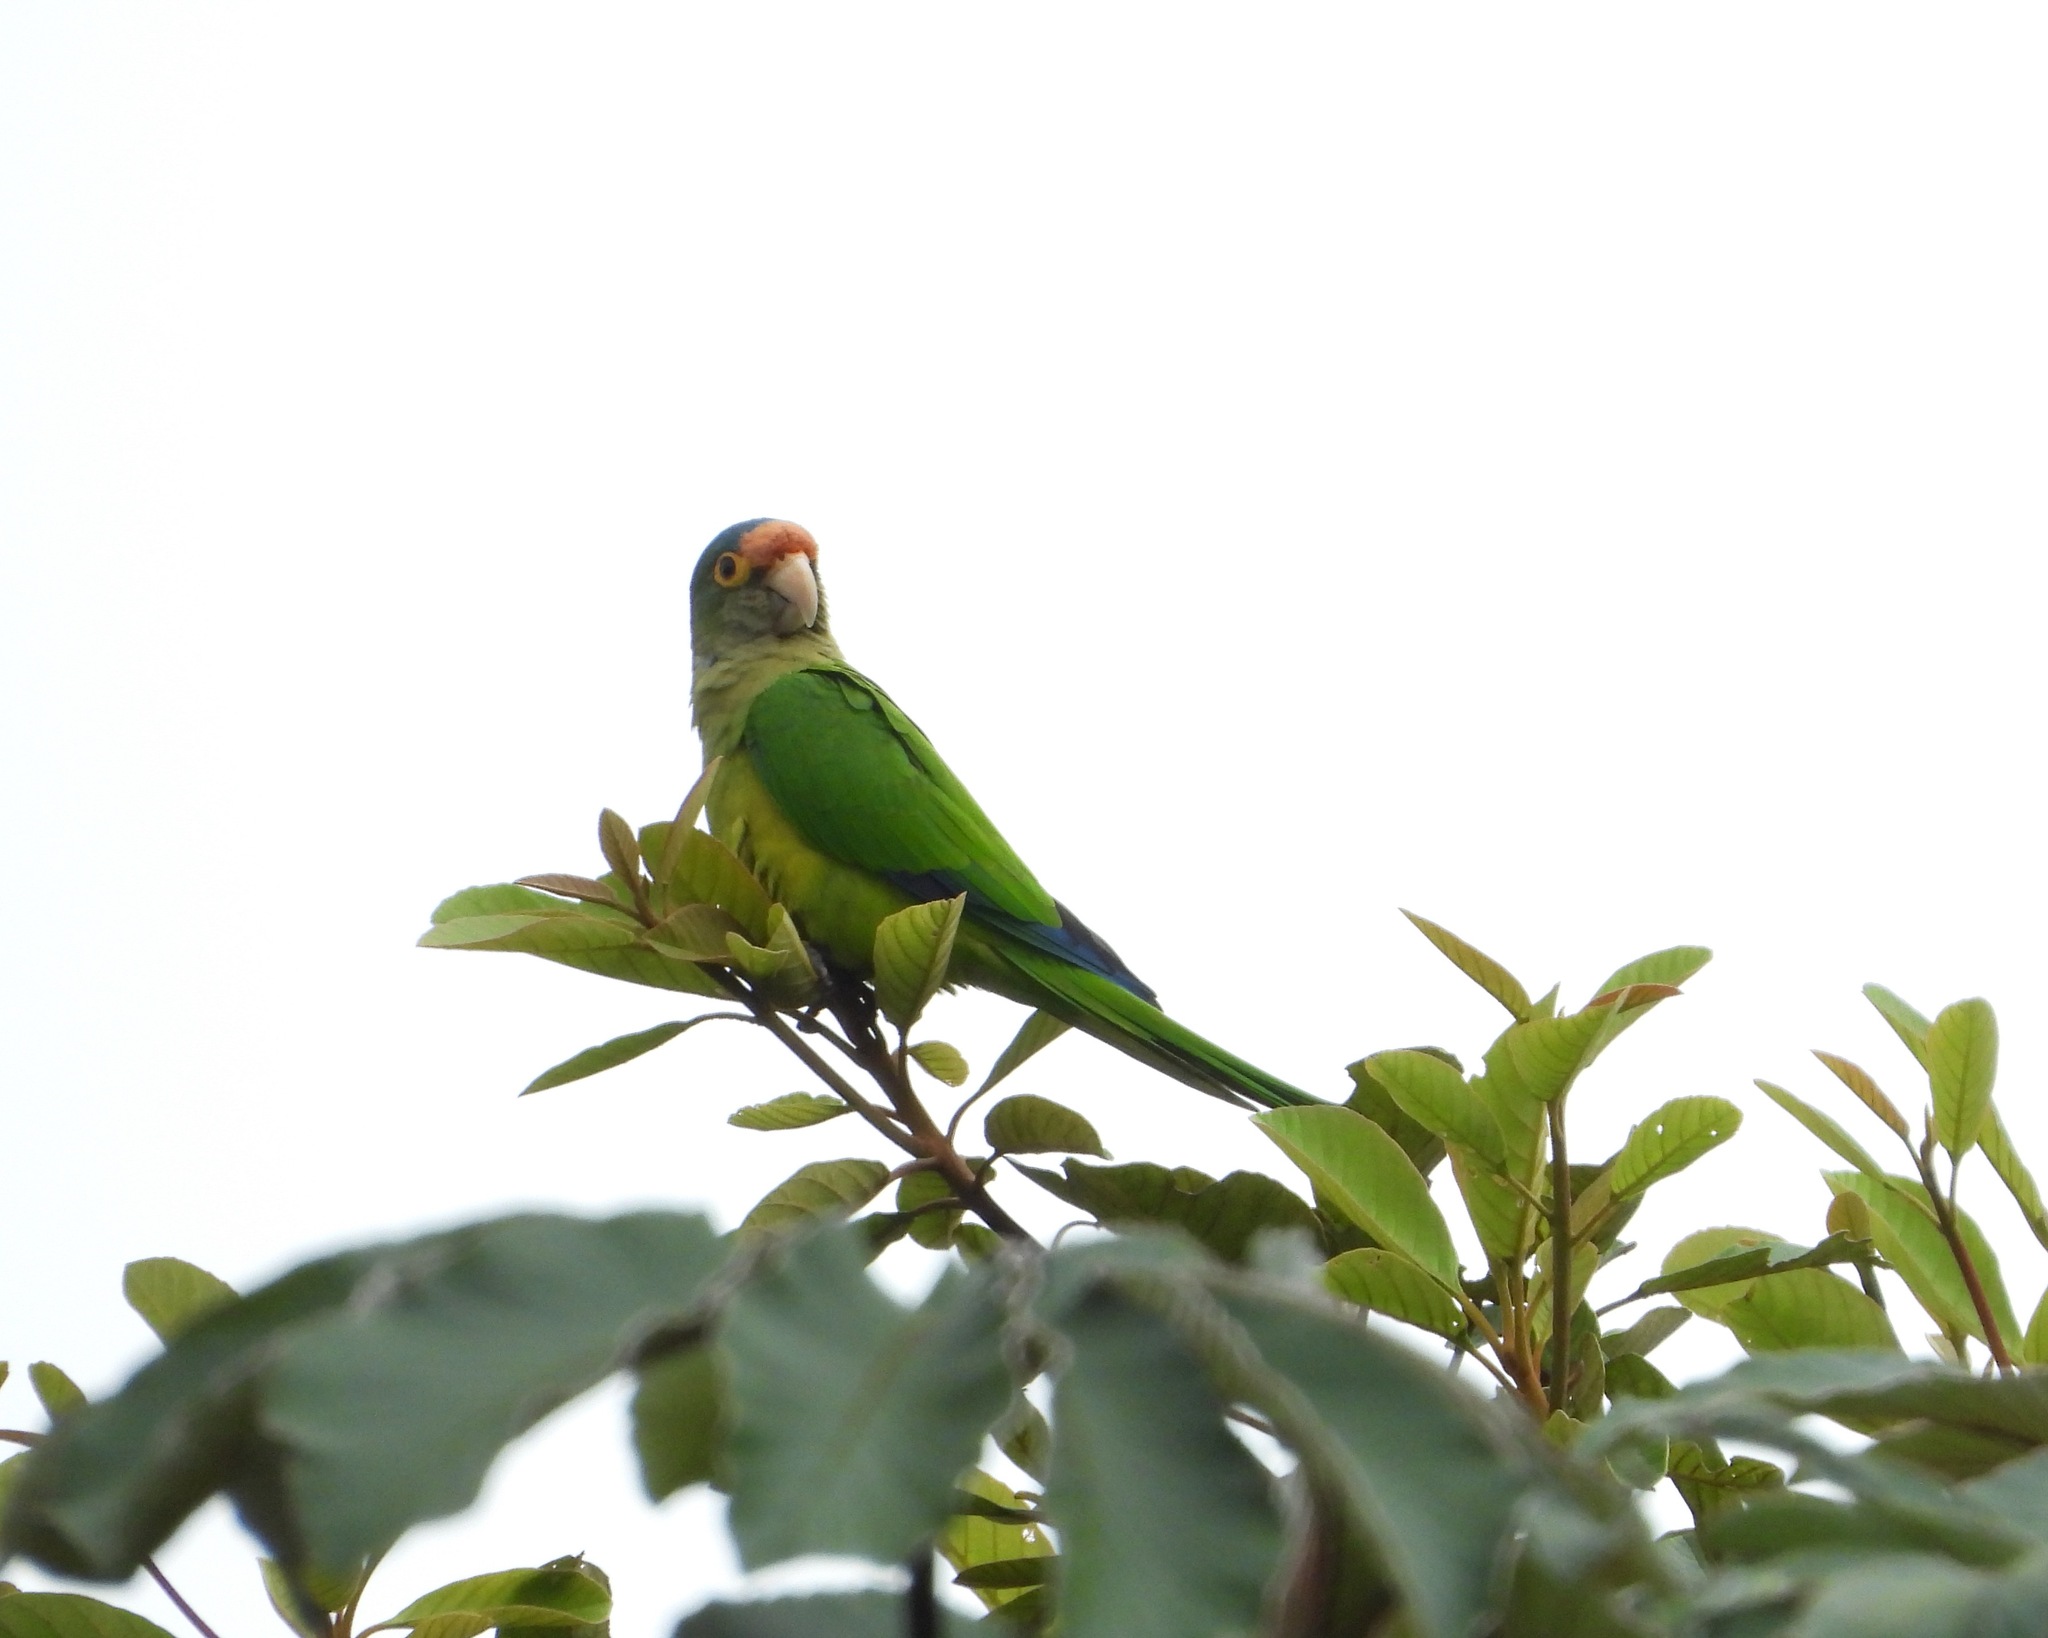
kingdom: Animalia
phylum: Chordata
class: Aves
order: Psittaciformes
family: Psittacidae
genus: Aratinga
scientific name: Aratinga canicularis
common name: Orange-fronted parakeet
